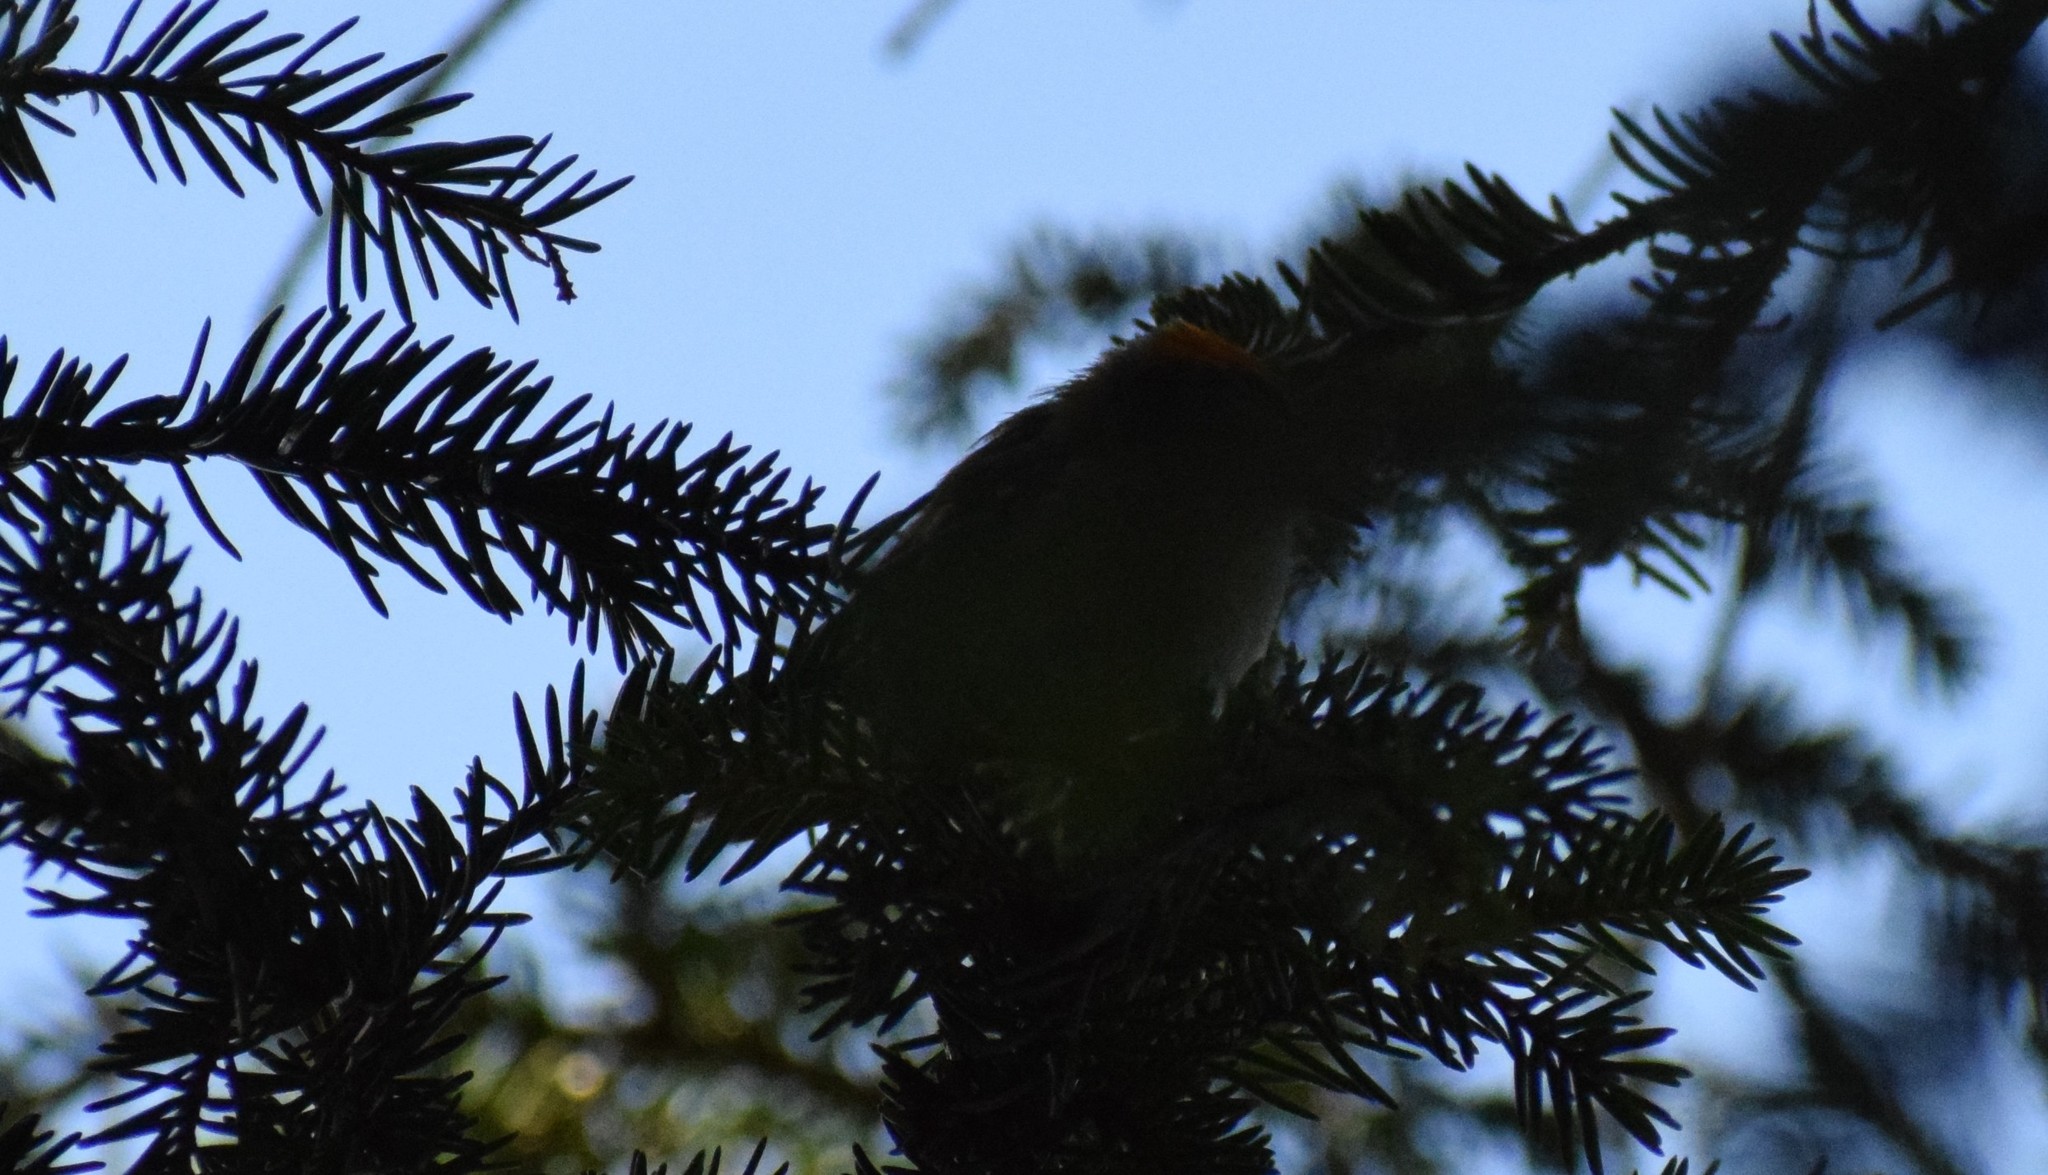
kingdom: Animalia
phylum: Chordata
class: Aves
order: Passeriformes
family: Regulidae
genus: Regulus
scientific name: Regulus ignicapilla
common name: Firecrest
